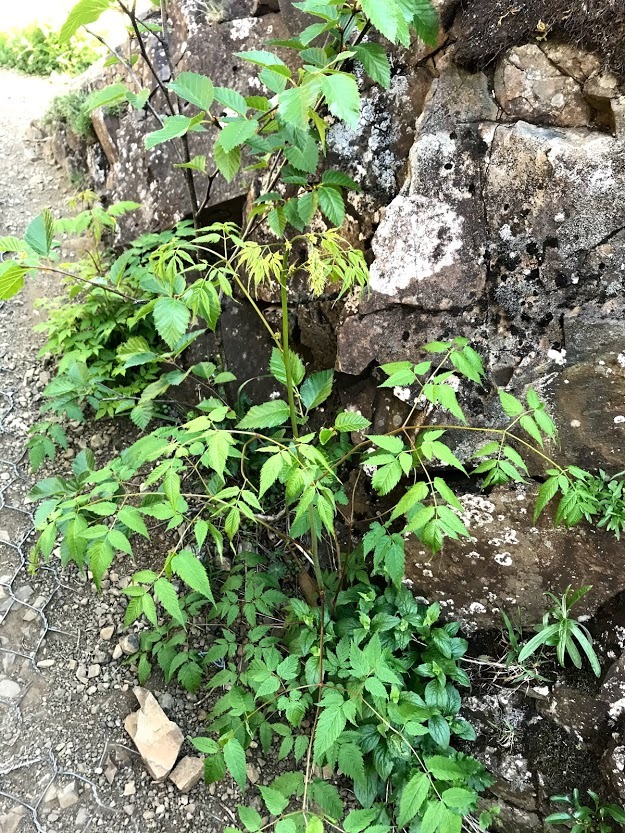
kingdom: Plantae
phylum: Tracheophyta
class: Magnoliopsida
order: Rosales
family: Rosaceae
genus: Aruncus
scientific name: Aruncus dioicus
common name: Buck's-beard
